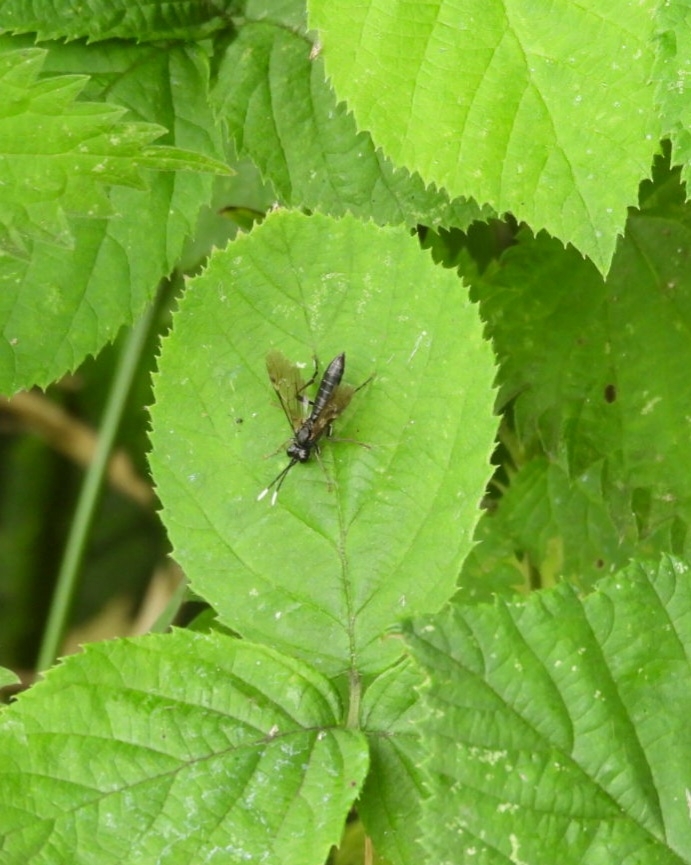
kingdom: Animalia
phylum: Arthropoda
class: Insecta
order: Hymenoptera
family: Tenthredinidae
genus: Tenthredo
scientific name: Tenthredo livida
